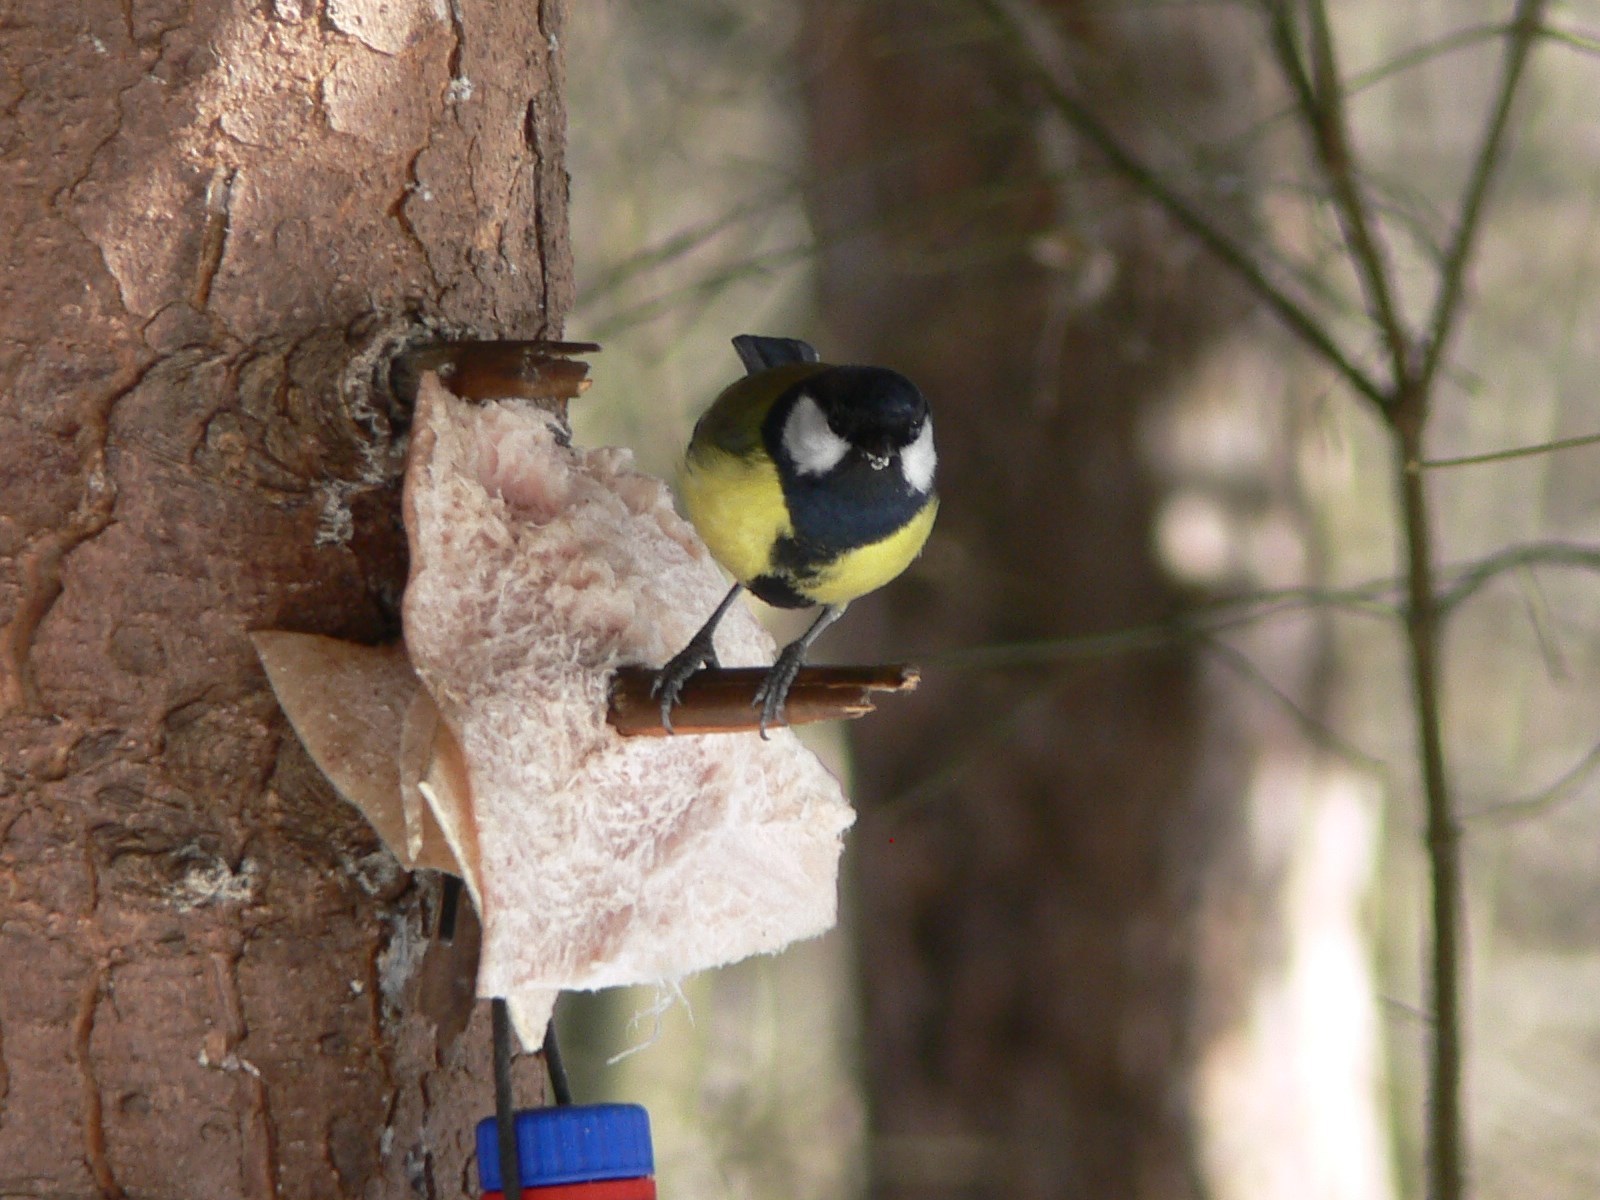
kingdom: Animalia
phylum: Chordata
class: Aves
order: Passeriformes
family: Paridae
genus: Parus
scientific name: Parus major
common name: Great tit
